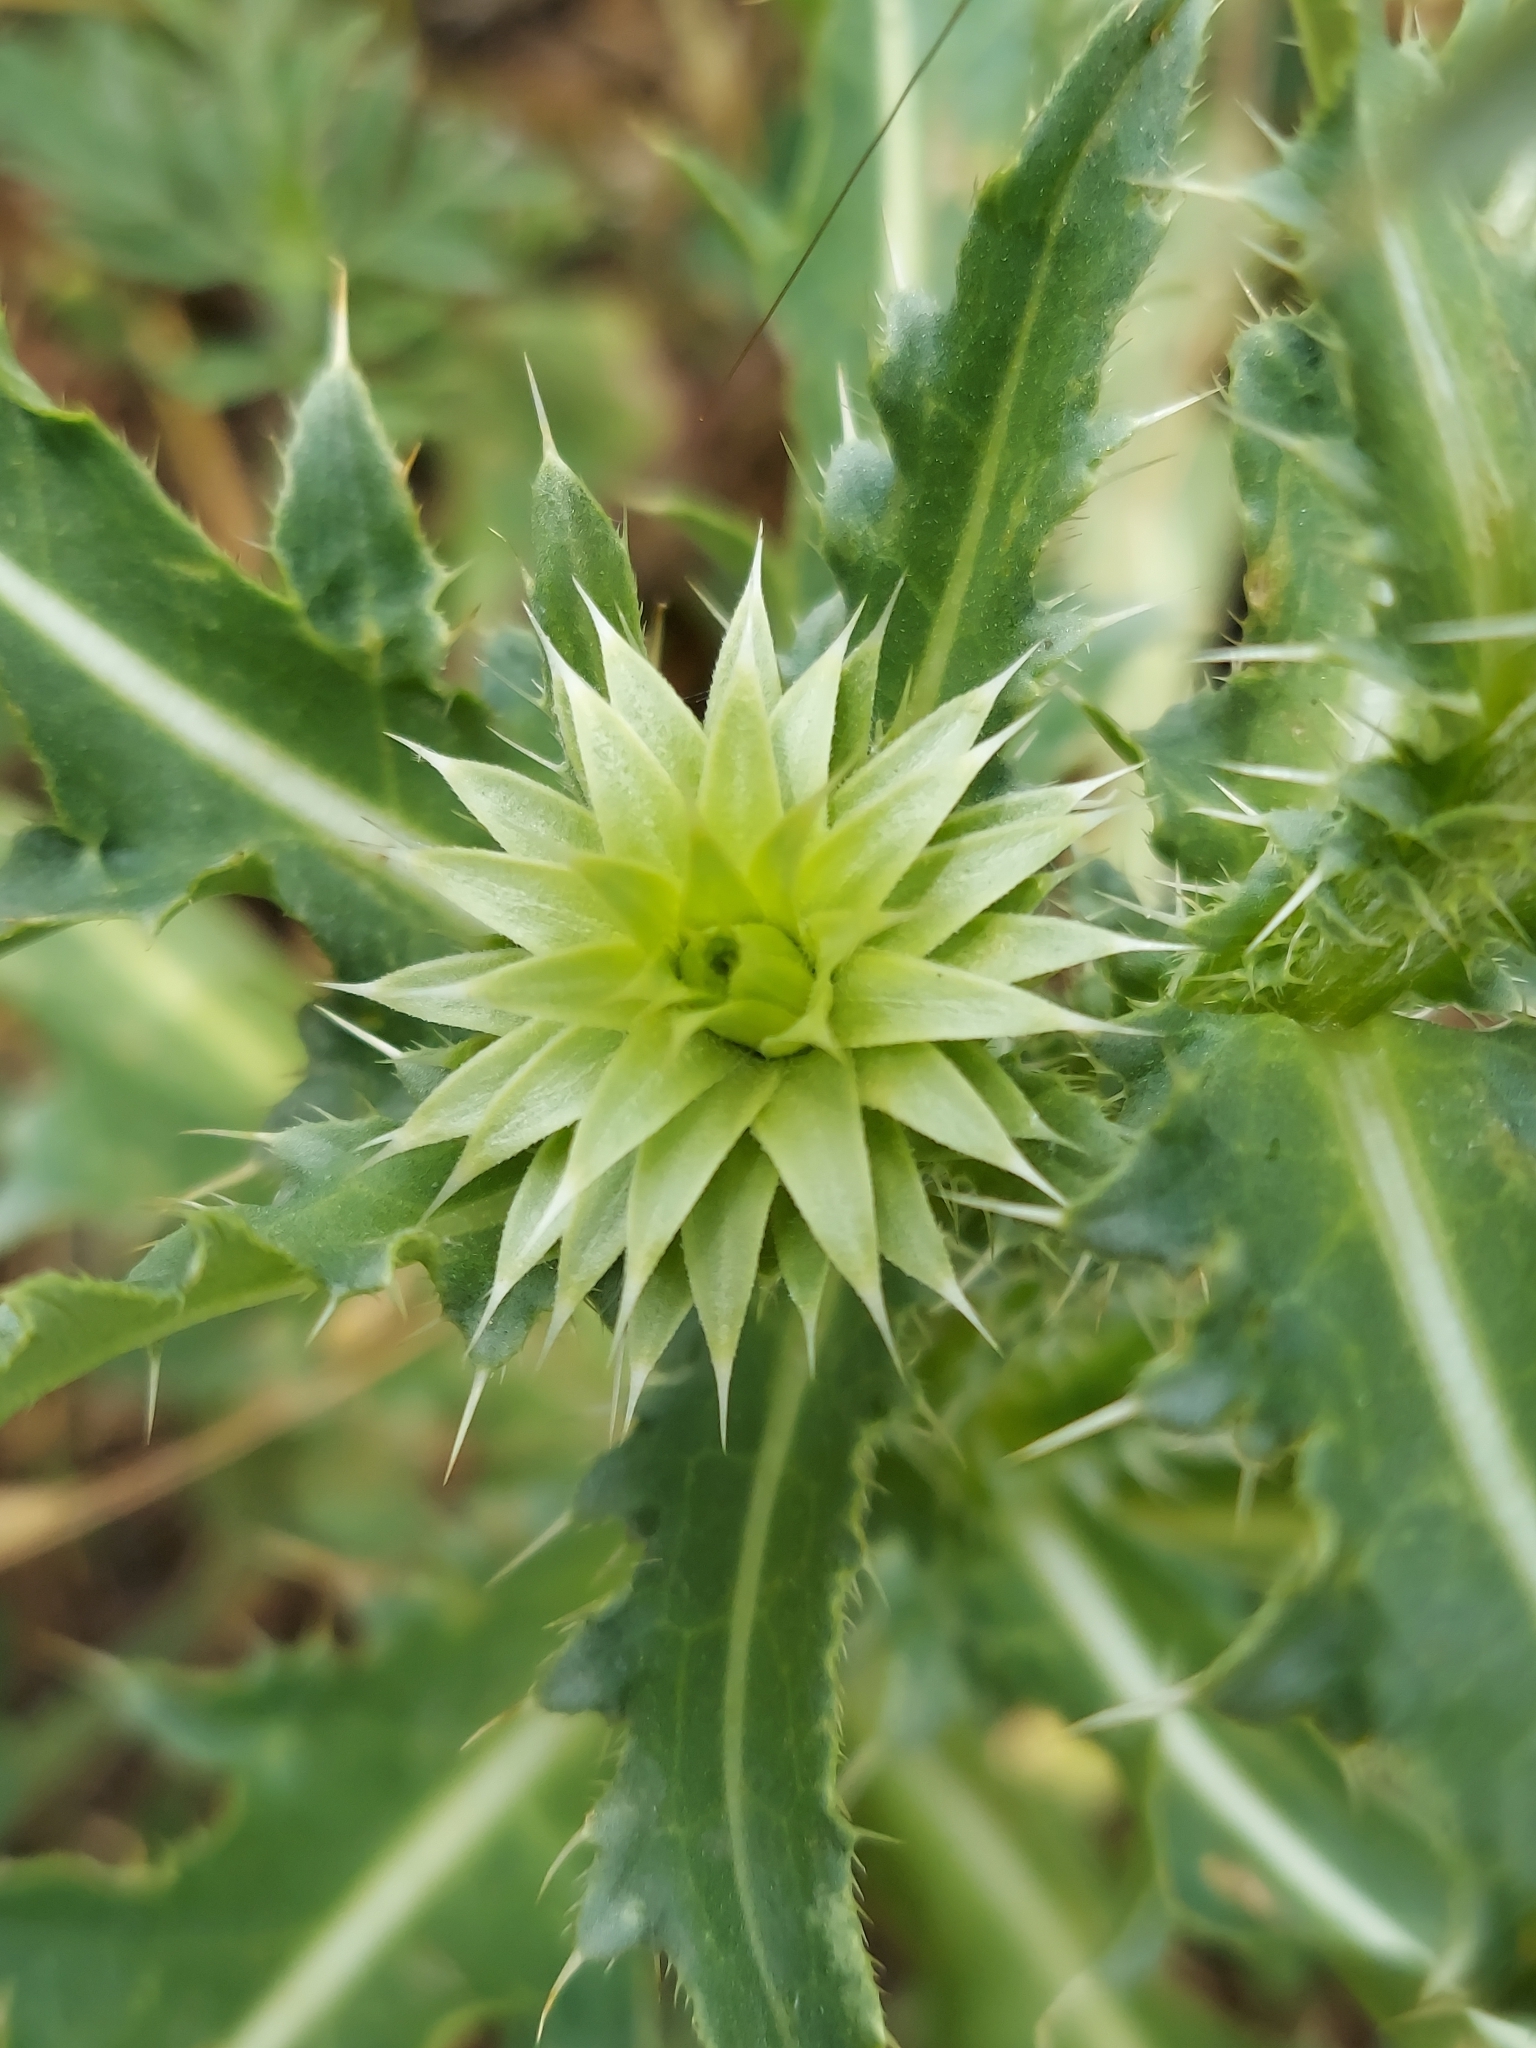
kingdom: Plantae
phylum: Tracheophyta
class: Magnoliopsida
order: Asterales
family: Asteraceae
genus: Carduus
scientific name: Carduus nutans
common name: Musk thistle
